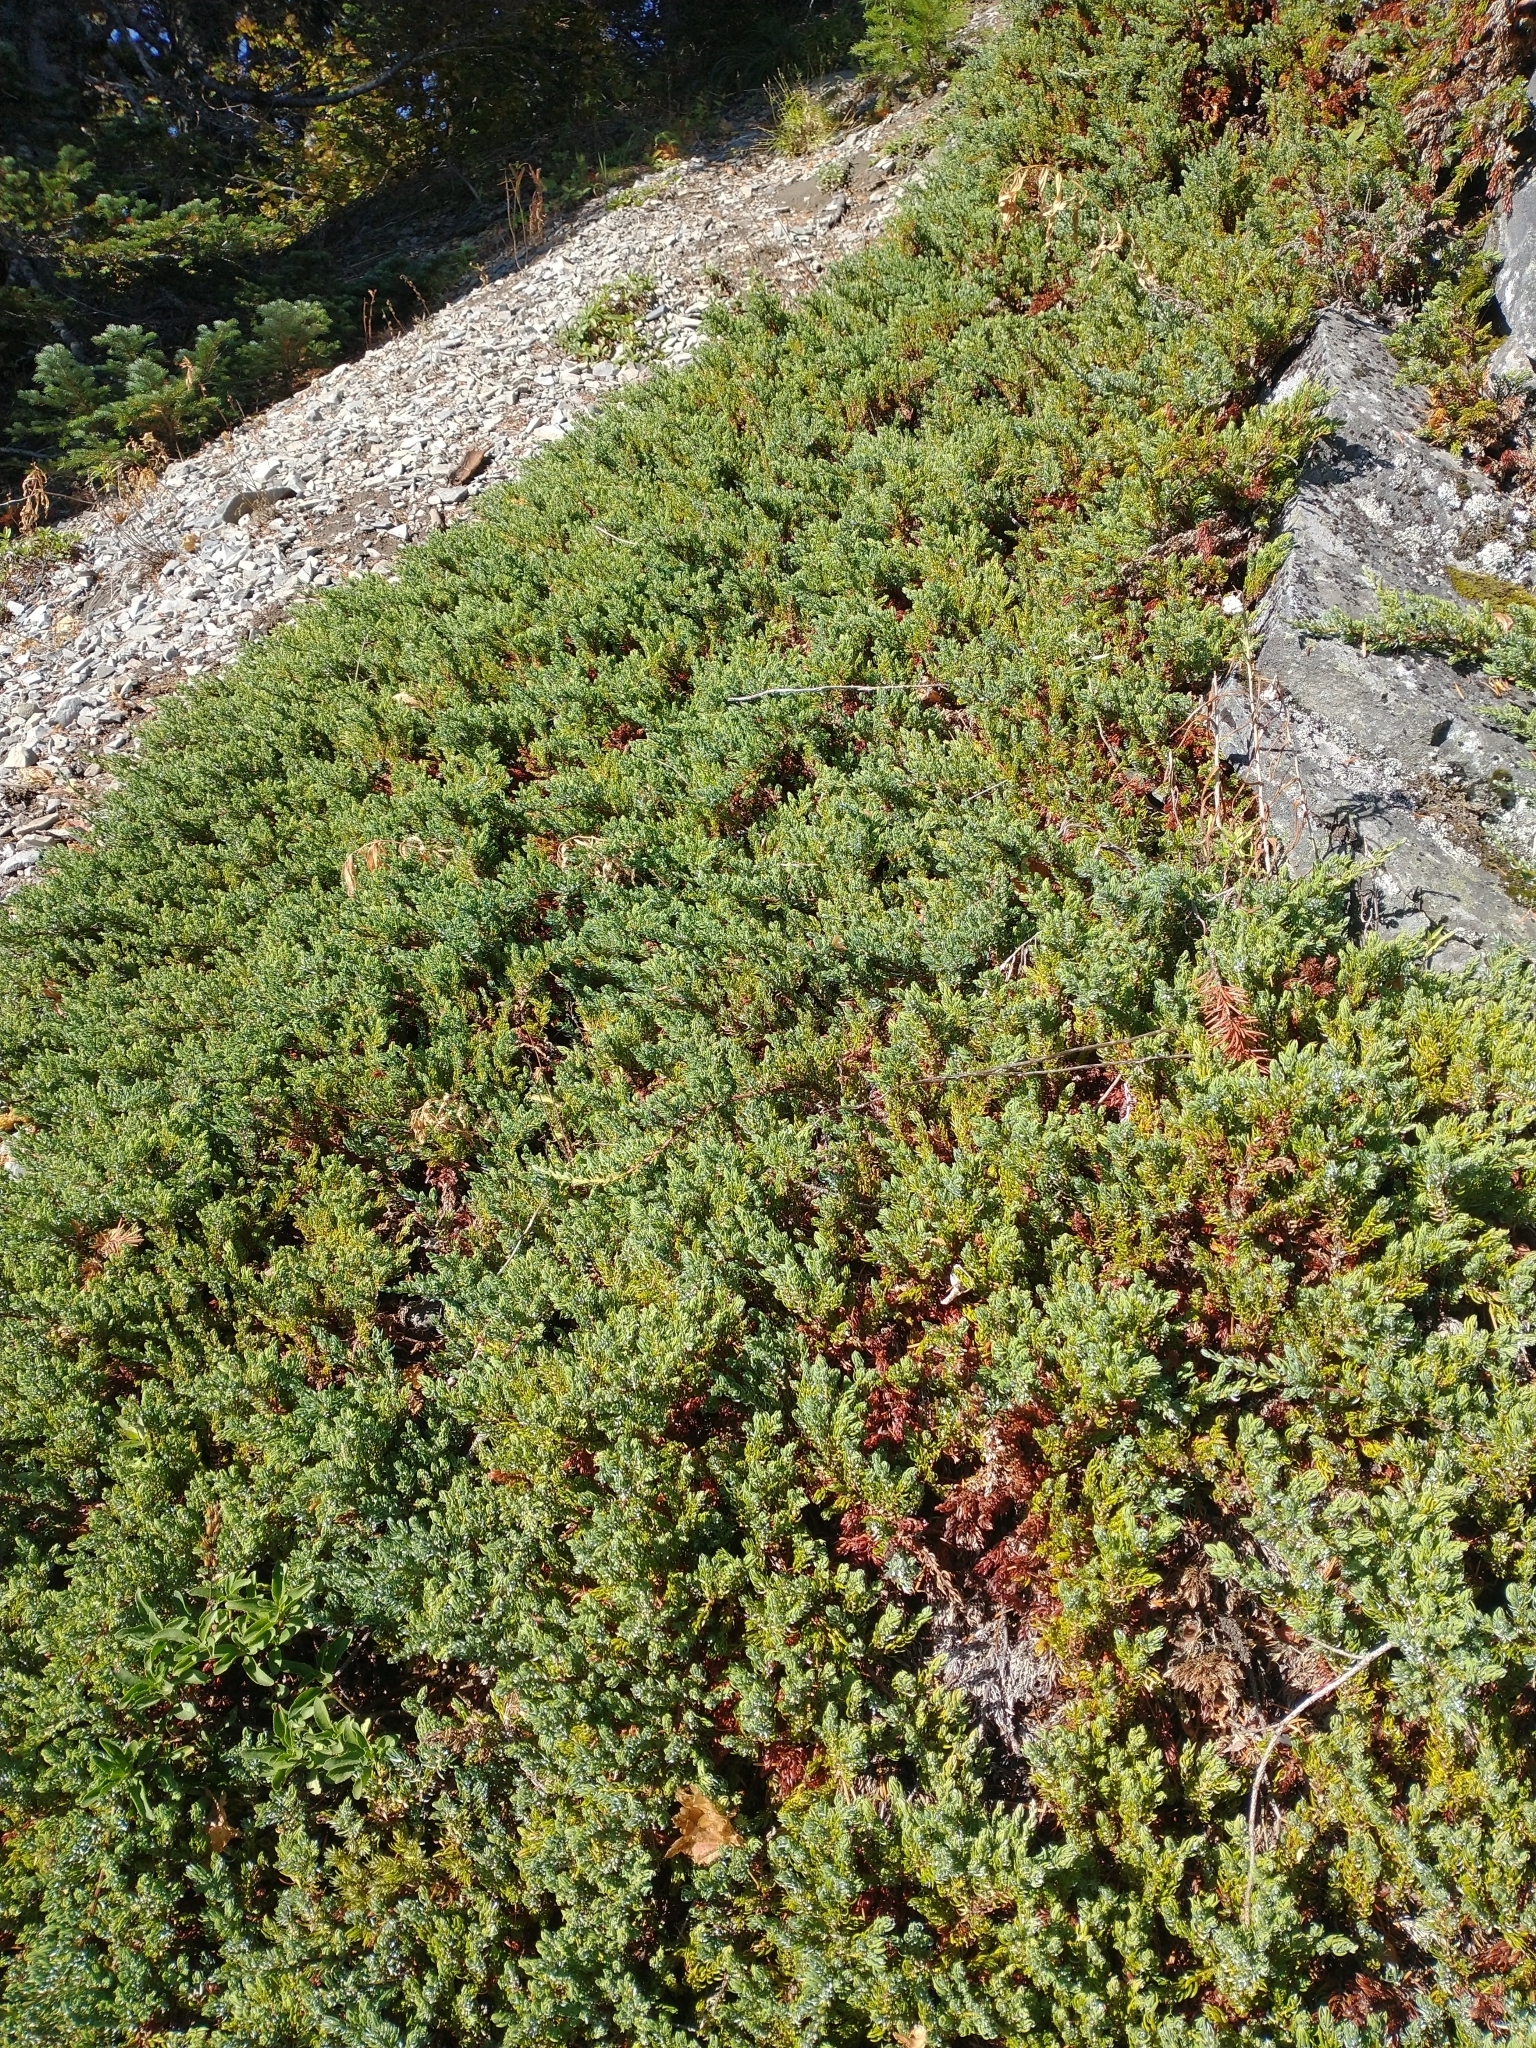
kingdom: Plantae
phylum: Tracheophyta
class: Pinopsida
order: Pinales
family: Cupressaceae
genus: Juniperus
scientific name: Juniperus communis
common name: Common juniper
